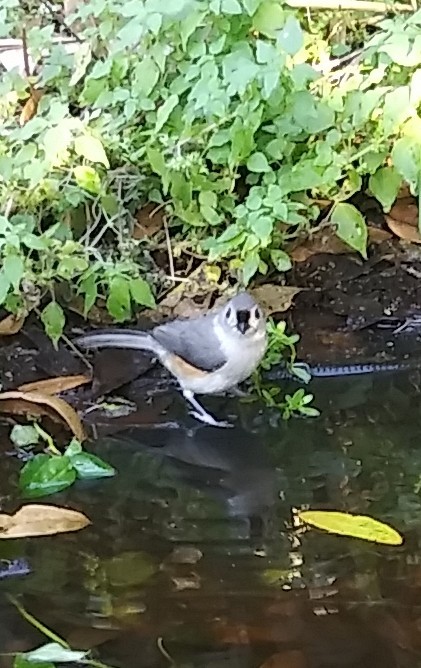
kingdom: Animalia
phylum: Chordata
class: Aves
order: Passeriformes
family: Paridae
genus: Baeolophus
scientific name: Baeolophus bicolor
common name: Tufted titmouse
